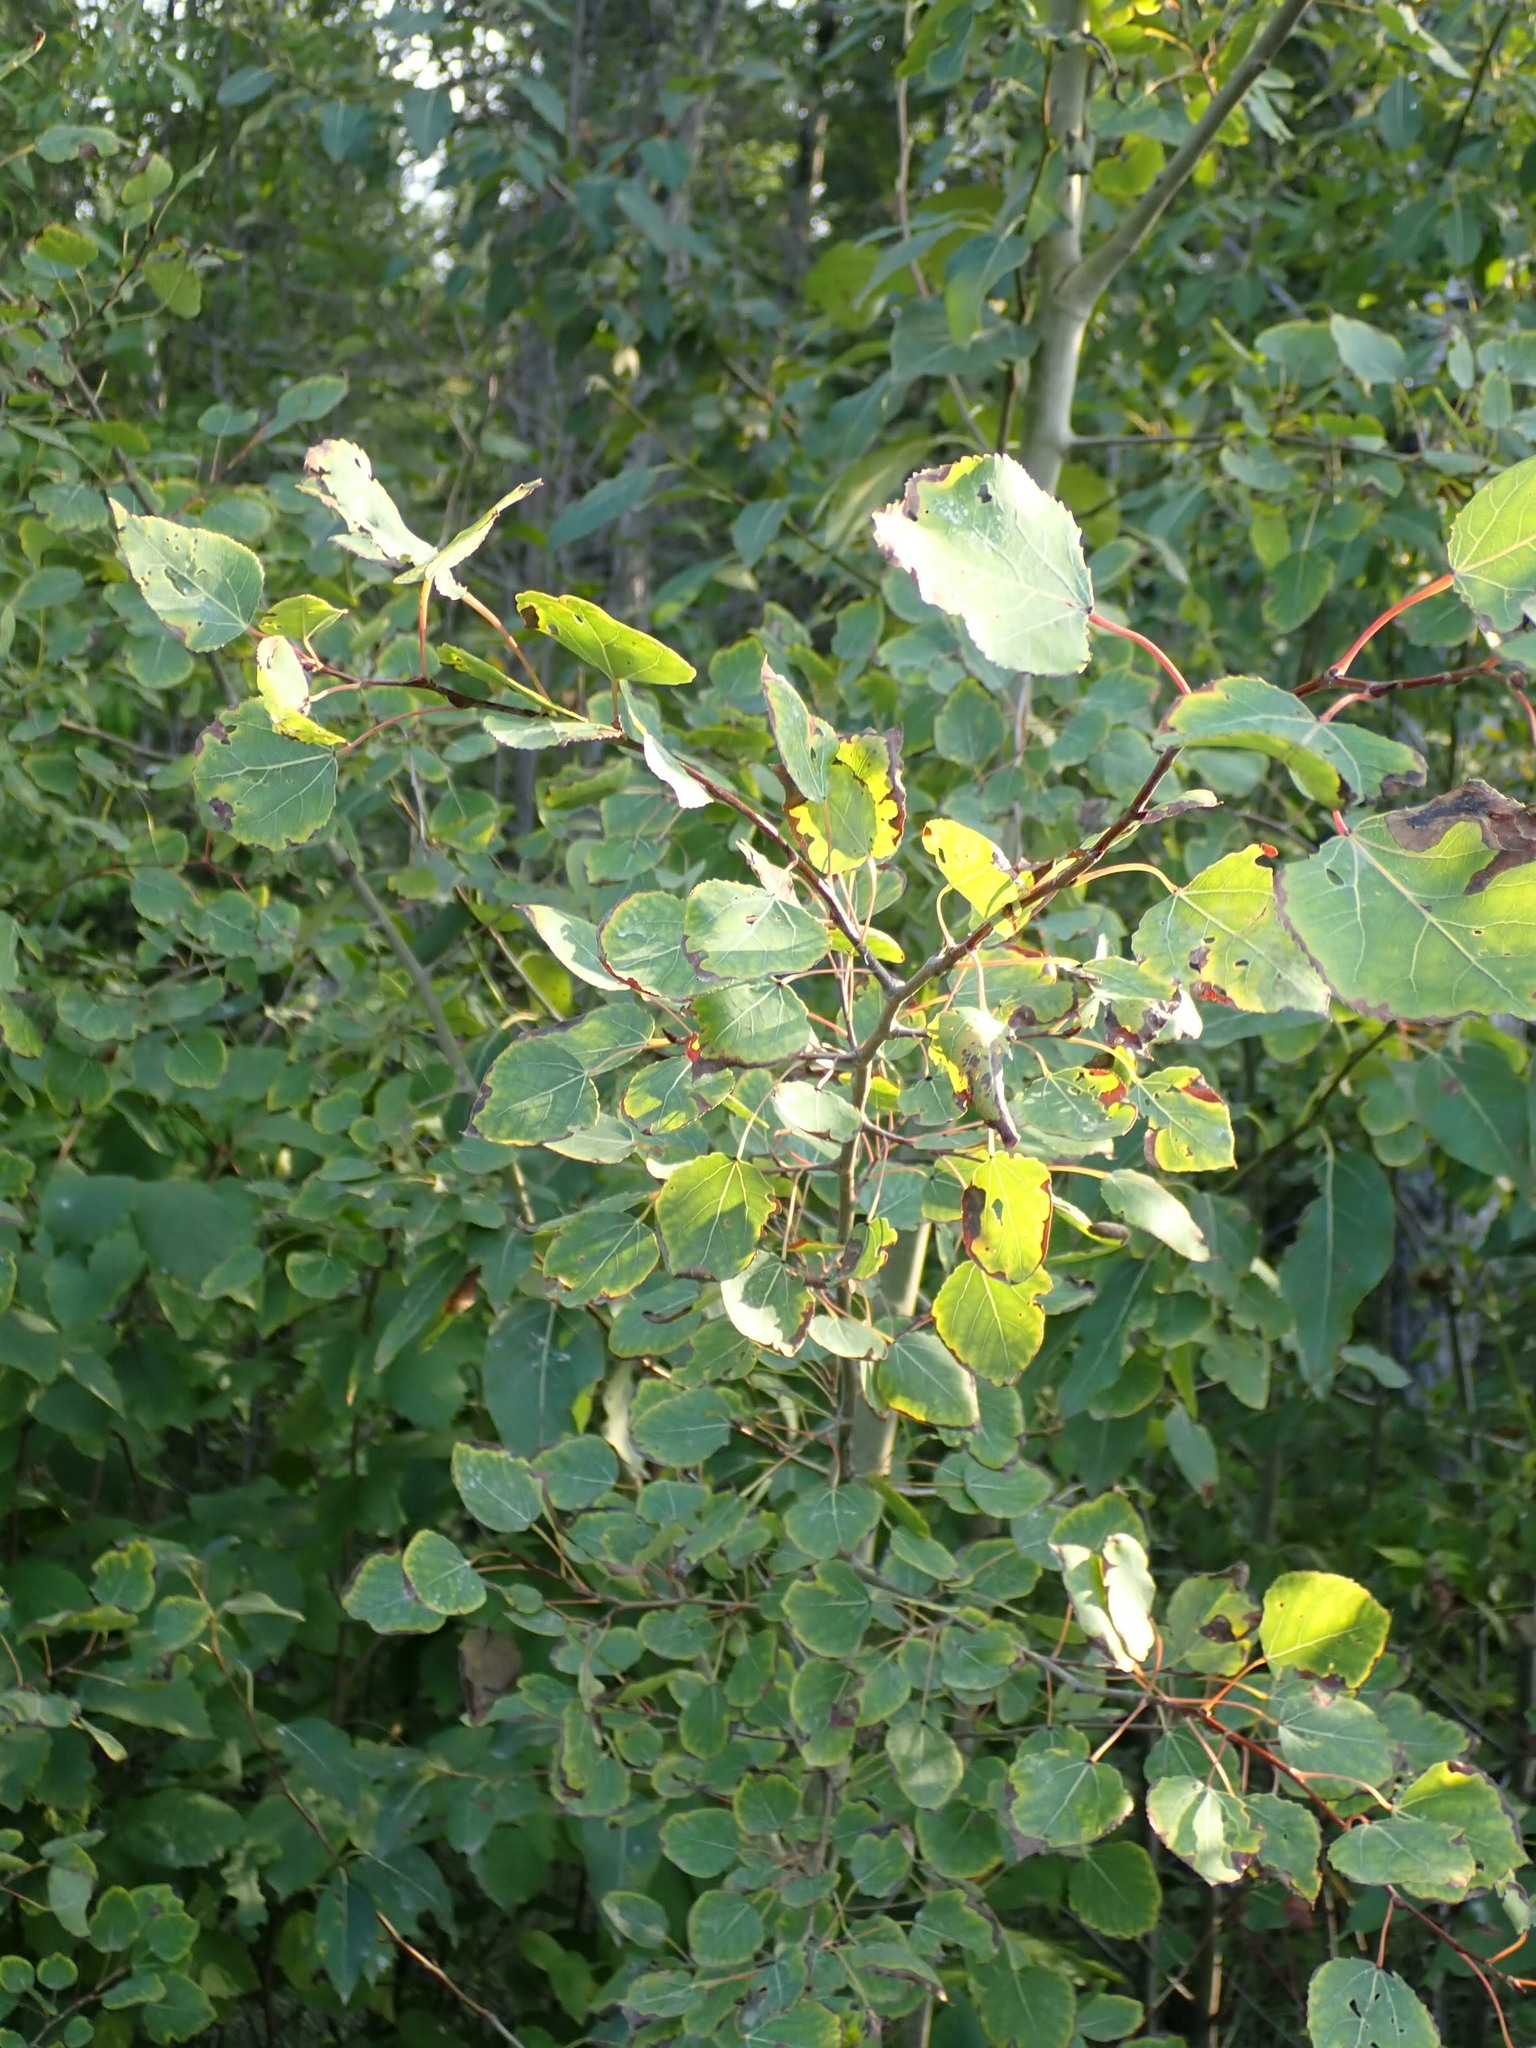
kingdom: Plantae
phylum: Tracheophyta
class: Magnoliopsida
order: Malpighiales
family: Salicaceae
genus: Populus
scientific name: Populus tremuloides
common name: Quaking aspen
